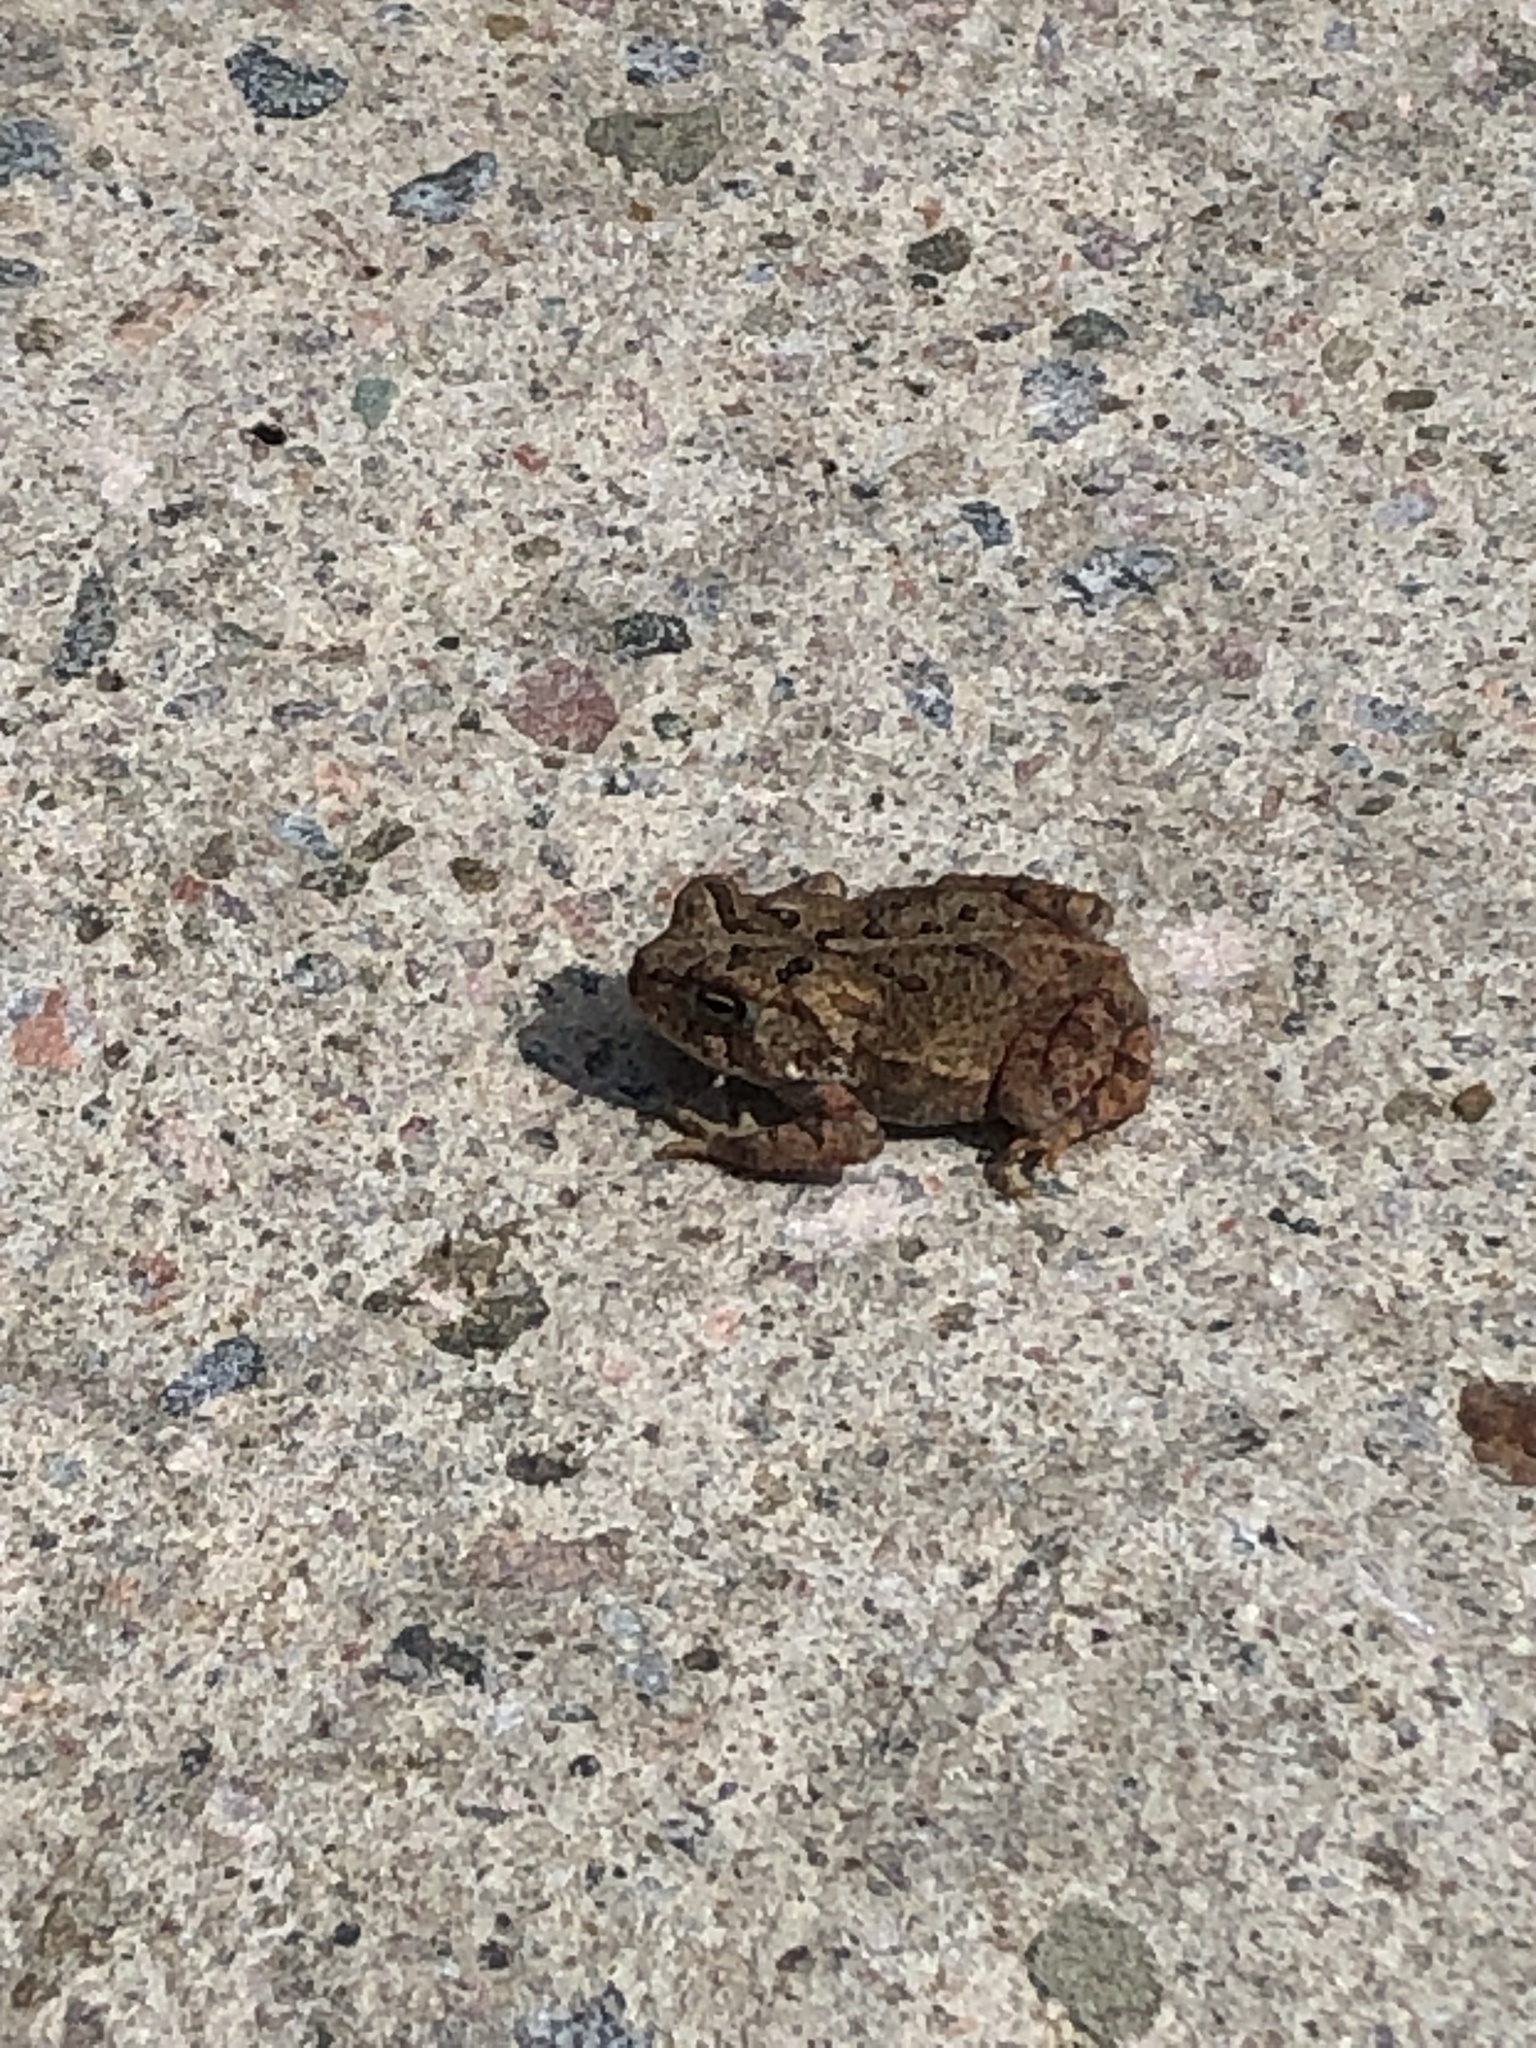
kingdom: Animalia
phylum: Chordata
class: Amphibia
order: Anura
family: Bufonidae
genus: Anaxyrus
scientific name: Anaxyrus americanus
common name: American toad
